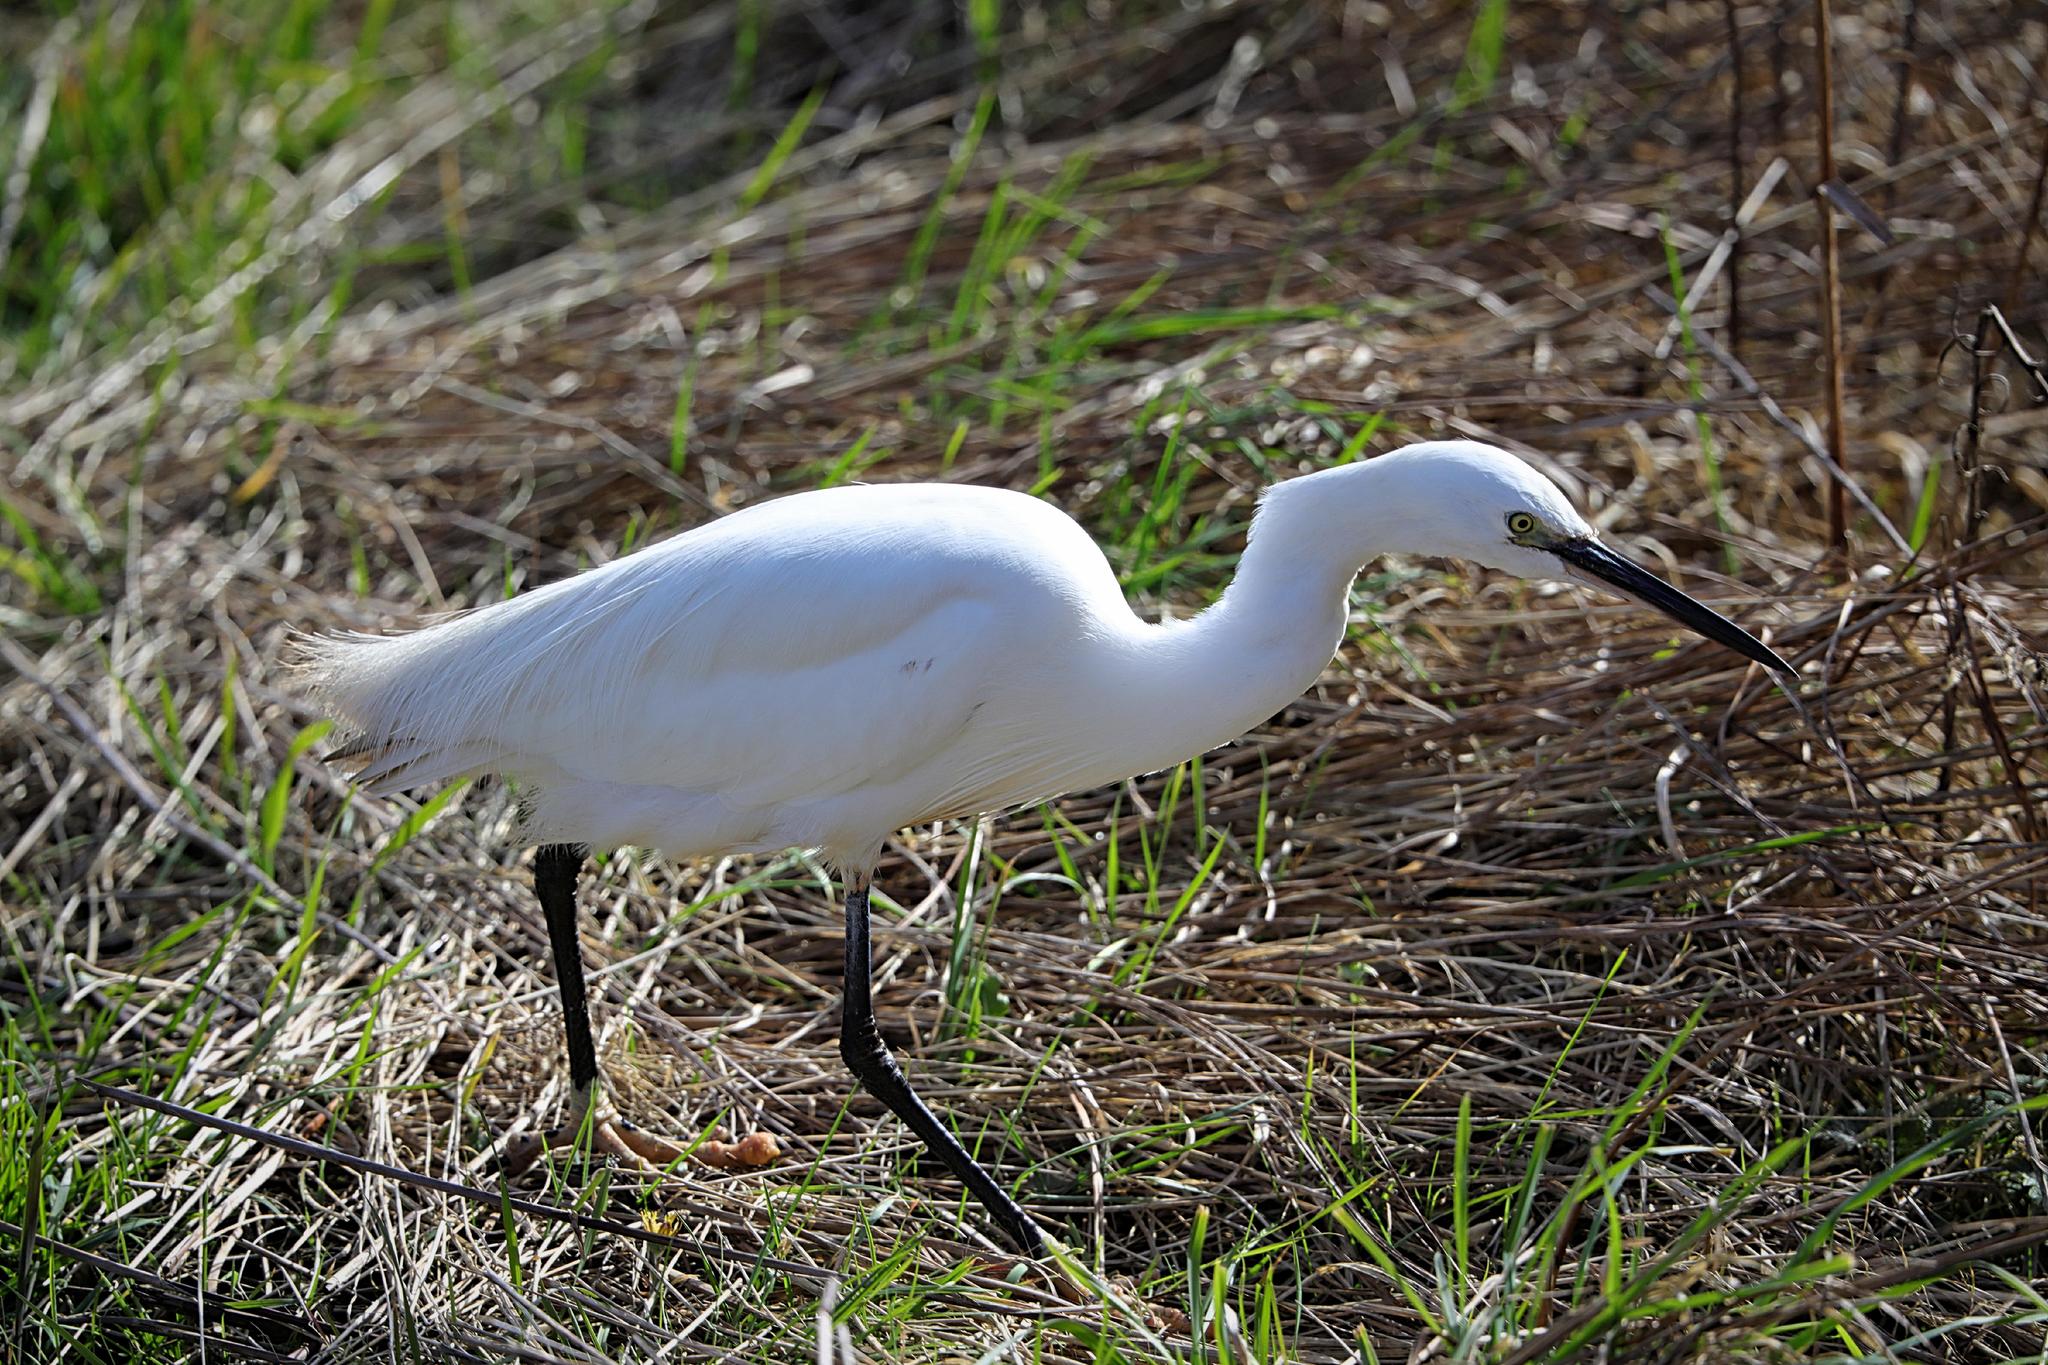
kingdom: Animalia
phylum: Chordata
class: Aves
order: Pelecaniformes
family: Ardeidae
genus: Egretta
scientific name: Egretta garzetta
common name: Little egret
